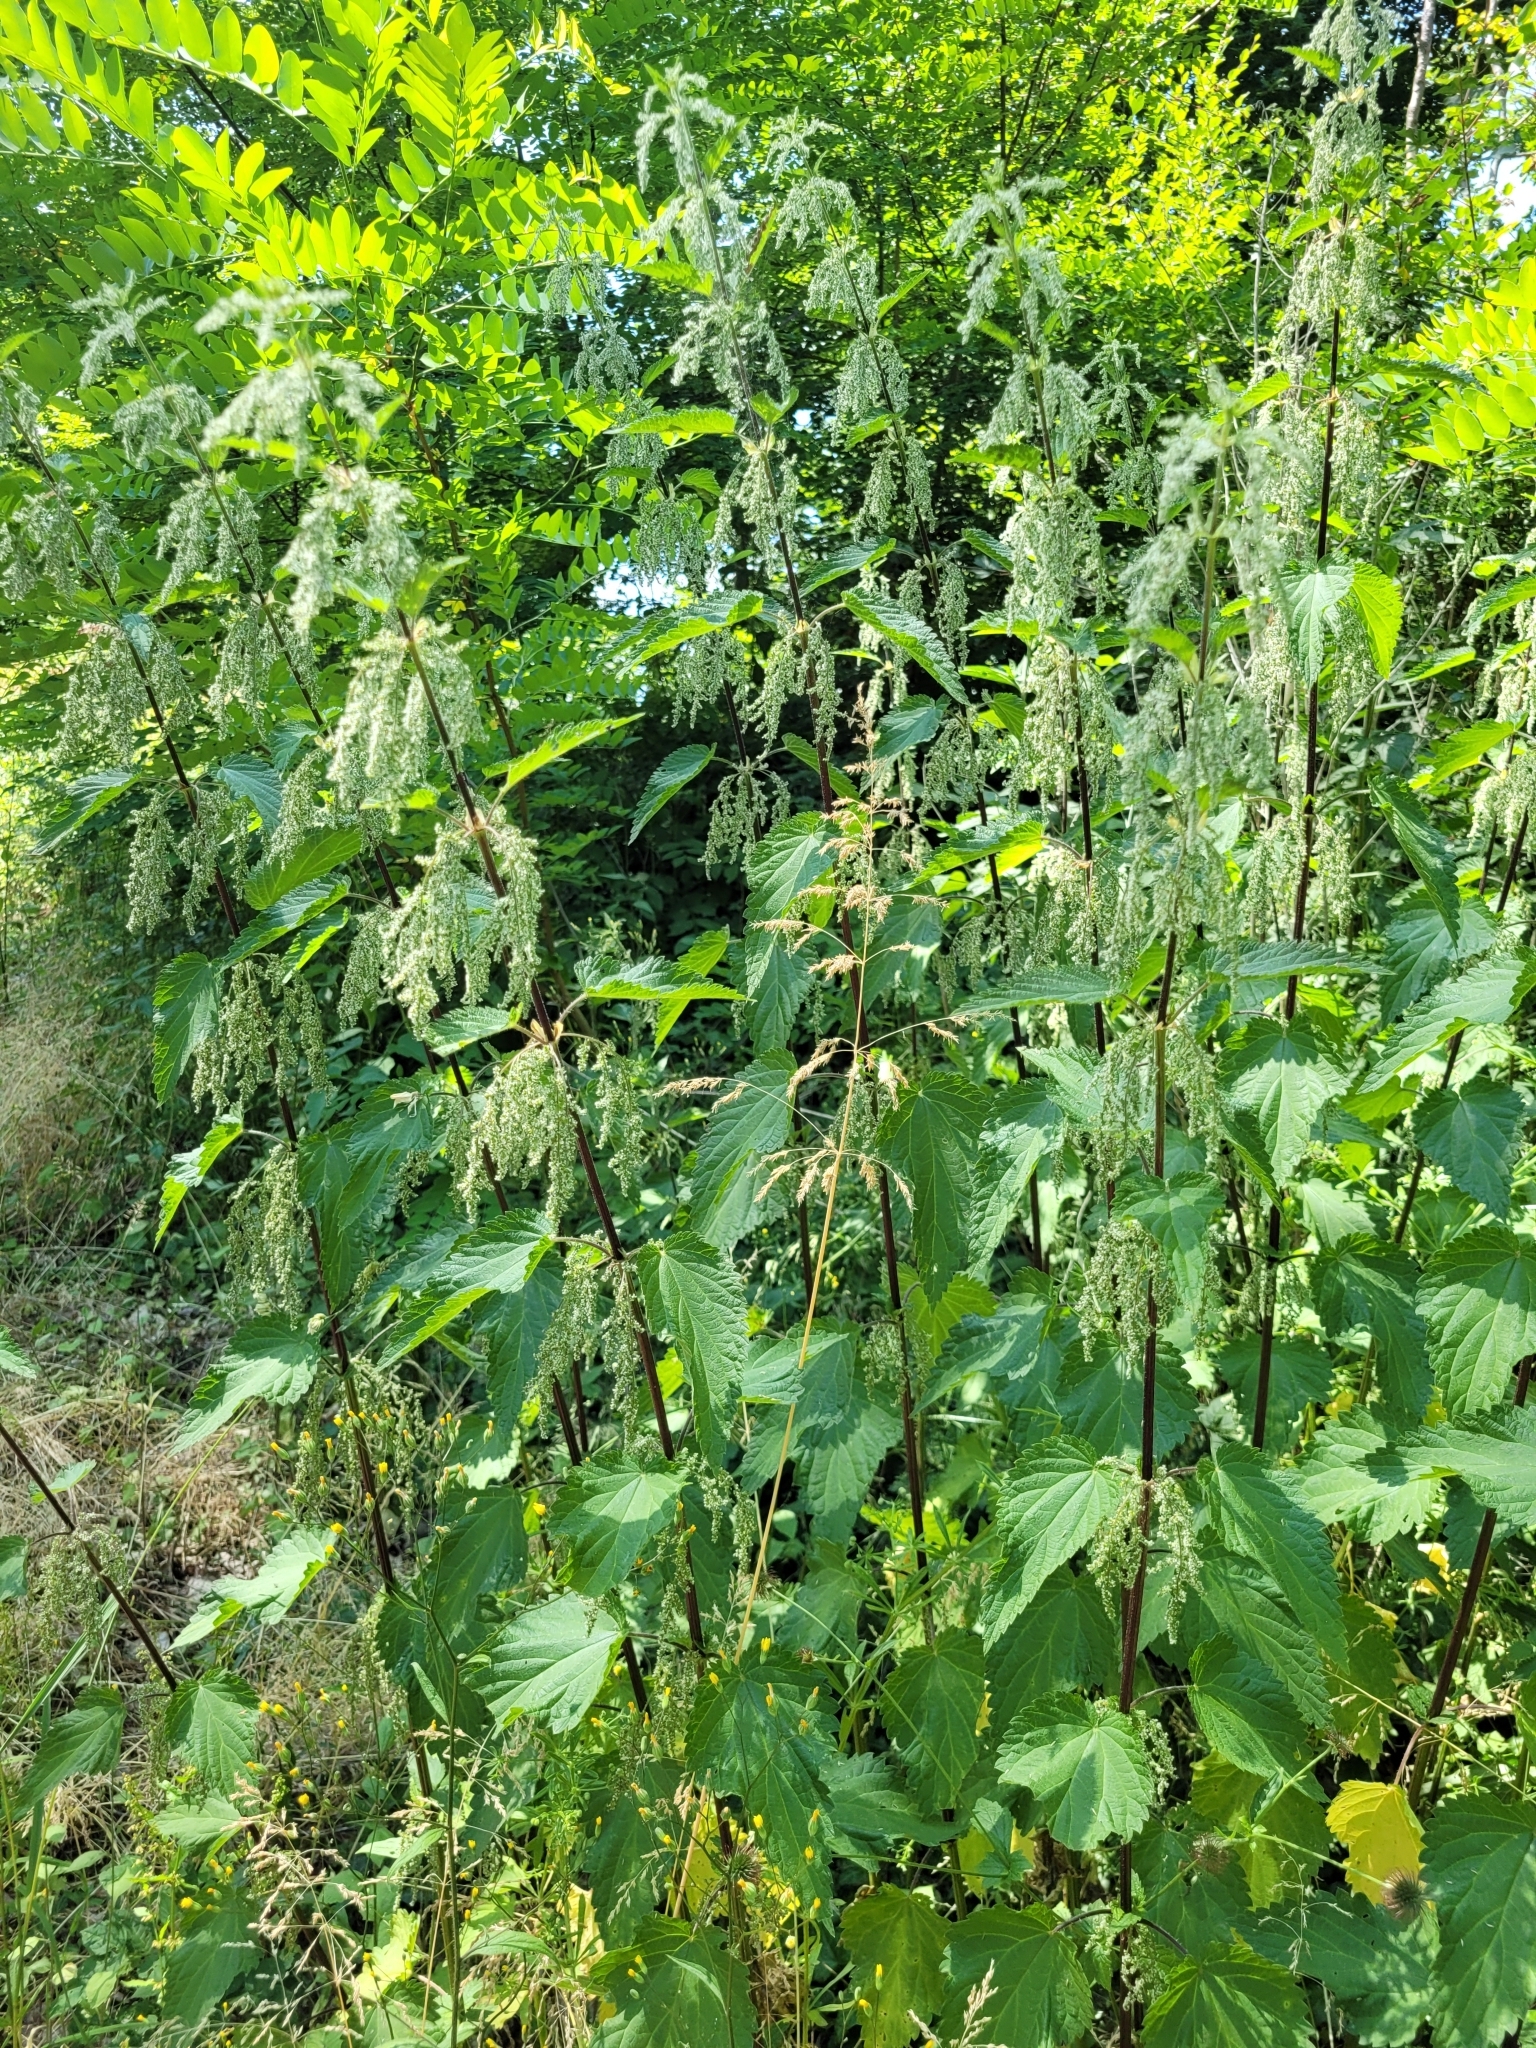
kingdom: Plantae
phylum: Tracheophyta
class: Magnoliopsida
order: Rosales
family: Urticaceae
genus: Urtica
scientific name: Urtica dioica
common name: Common nettle
